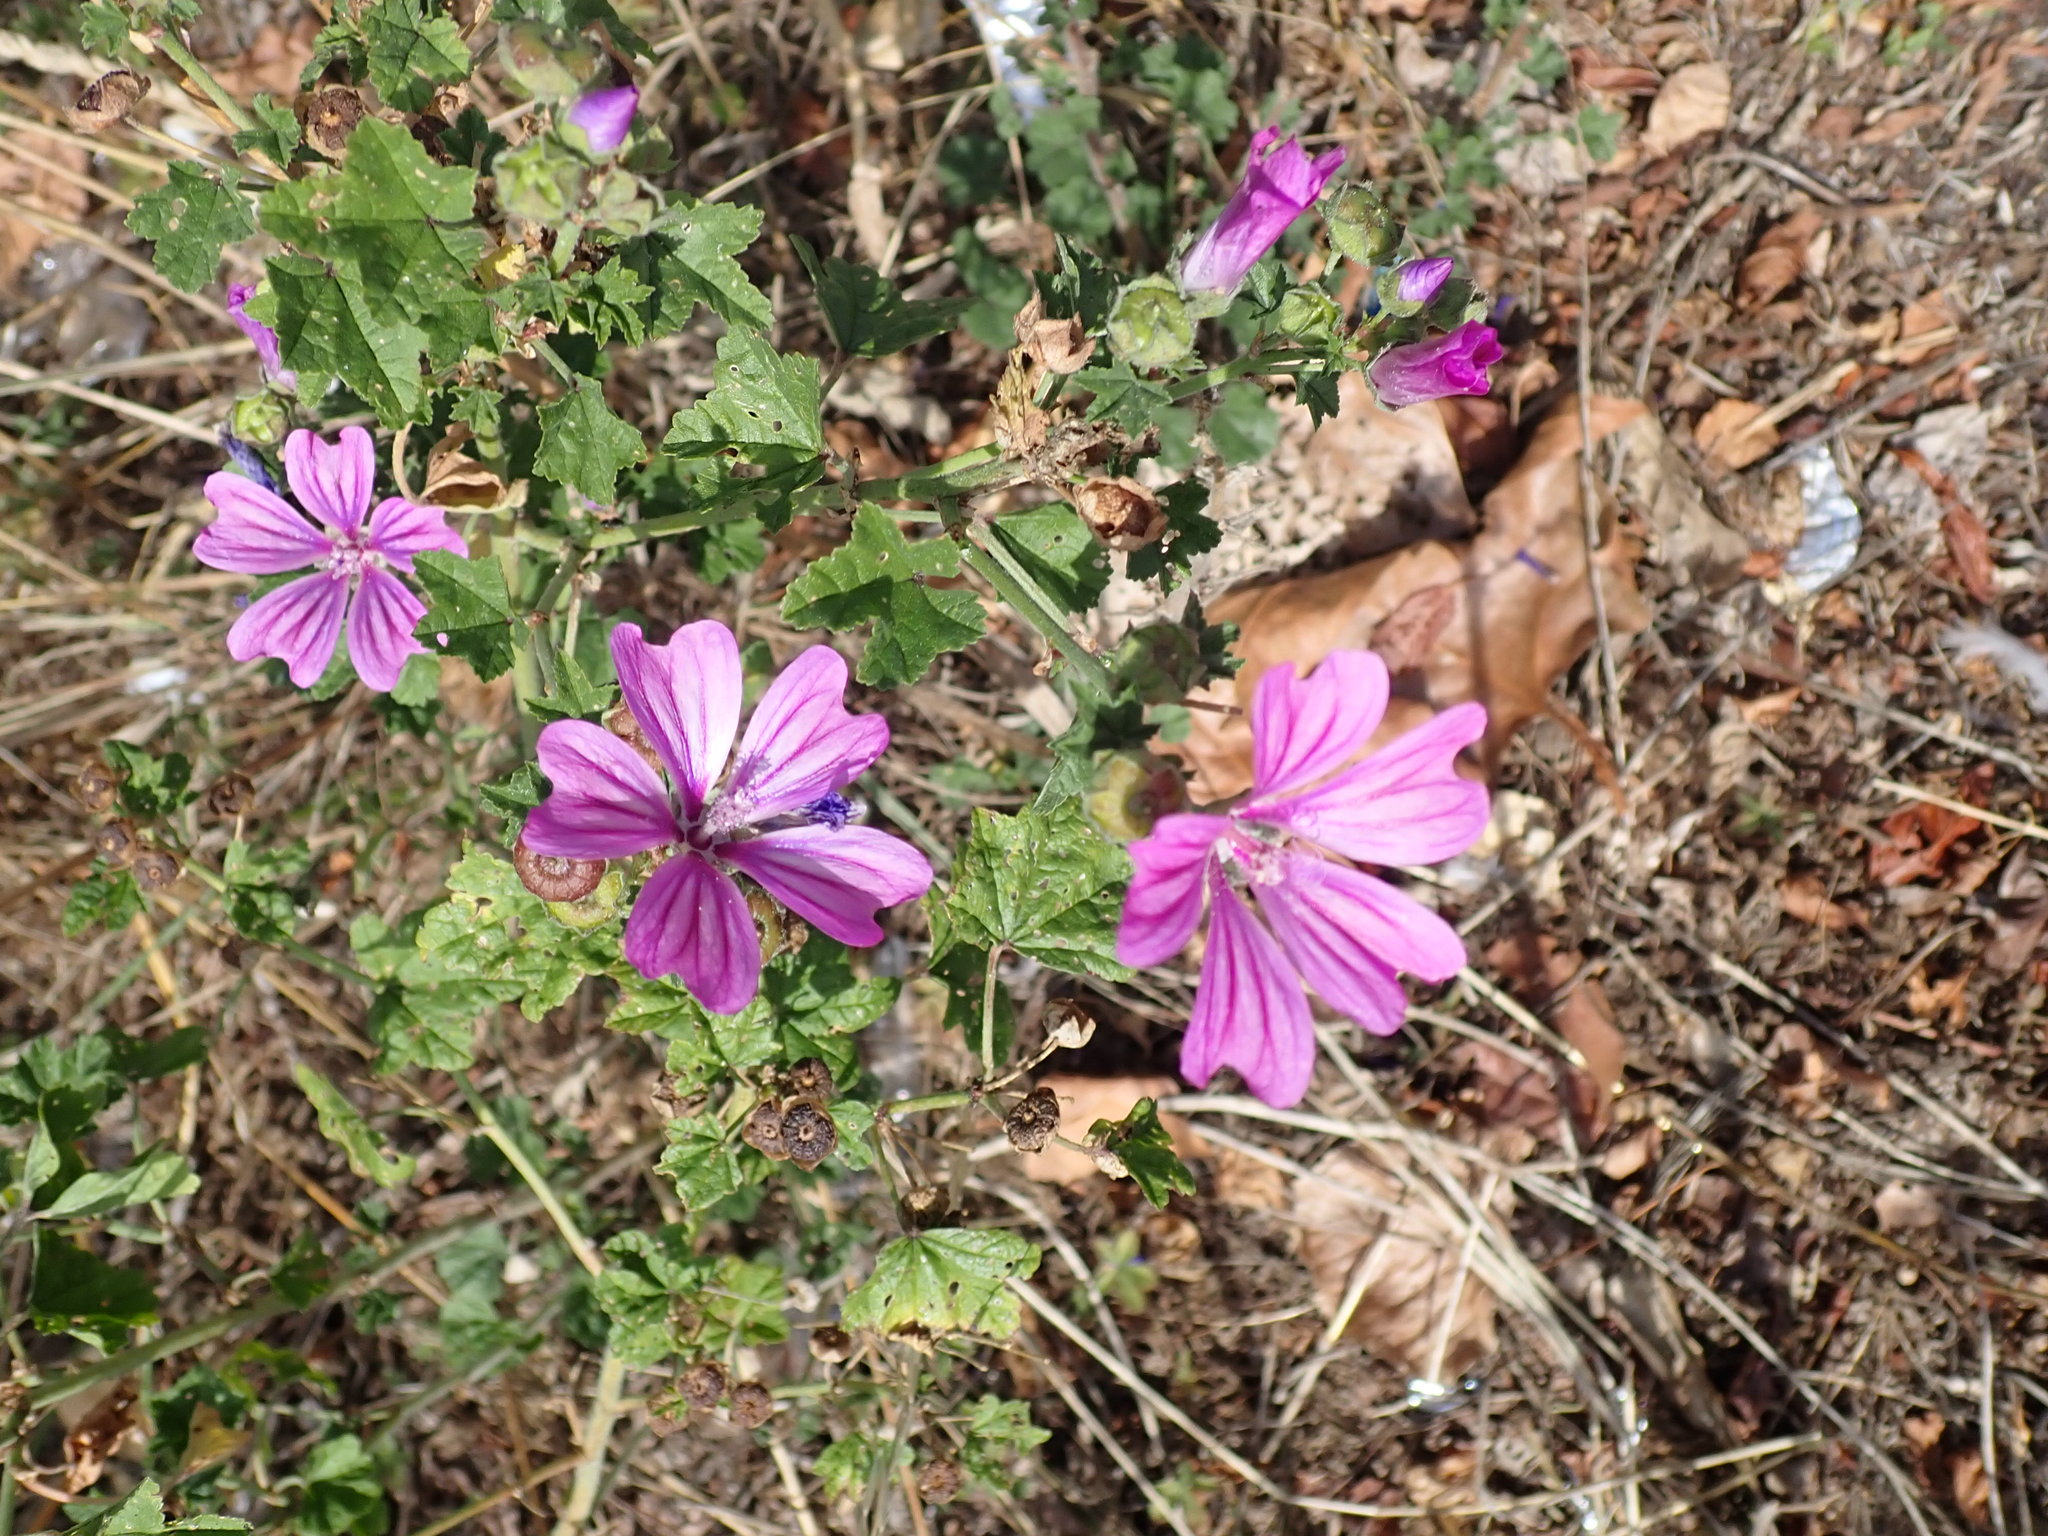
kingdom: Plantae
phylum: Tracheophyta
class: Magnoliopsida
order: Malvales
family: Malvaceae
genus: Malva
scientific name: Malva sylvestris
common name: Common mallow
